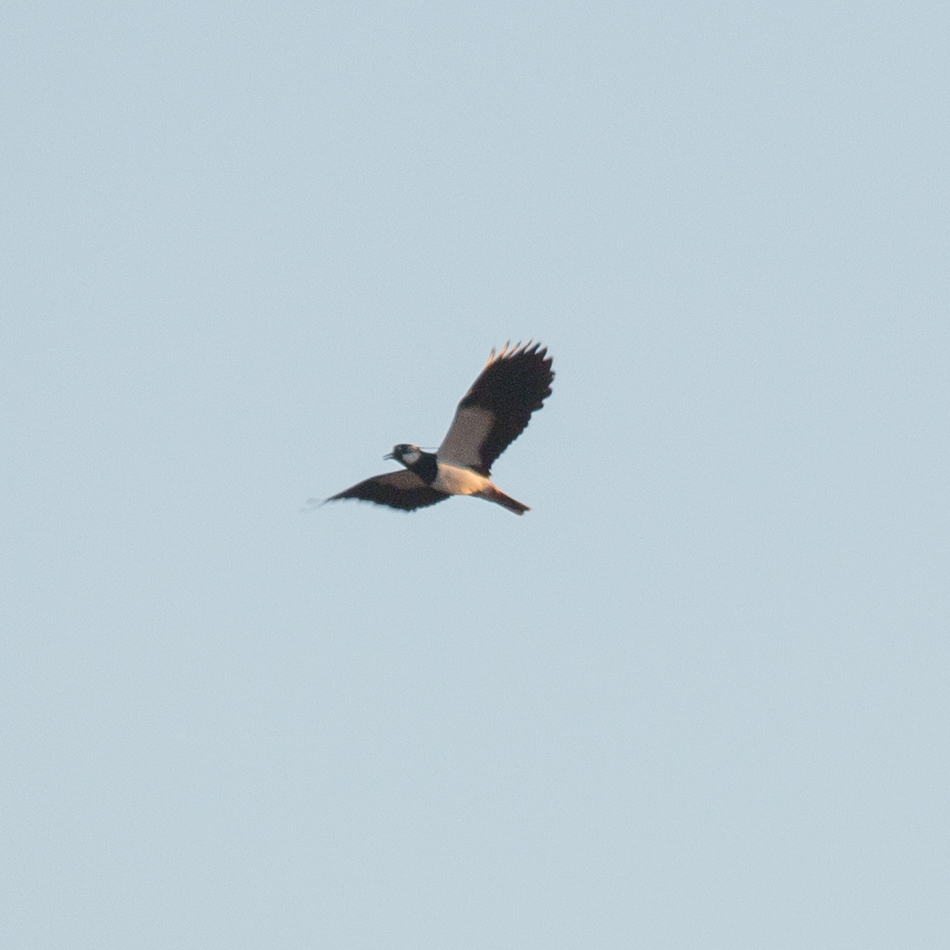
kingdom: Animalia
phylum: Chordata
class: Aves
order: Charadriiformes
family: Charadriidae
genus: Vanellus
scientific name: Vanellus vanellus
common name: Northern lapwing
